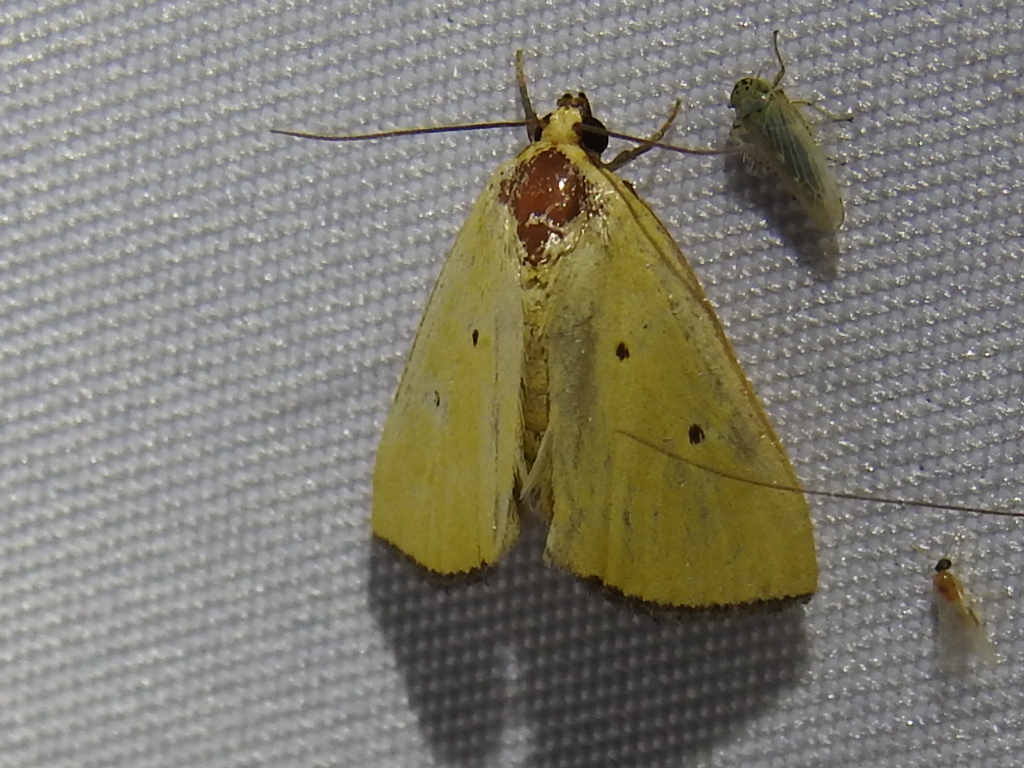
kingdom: Animalia
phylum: Arthropoda
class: Insecta
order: Lepidoptera
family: Noctuidae
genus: Marimatha
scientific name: Marimatha nigrofimbria
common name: Black-bordered lemon moth
